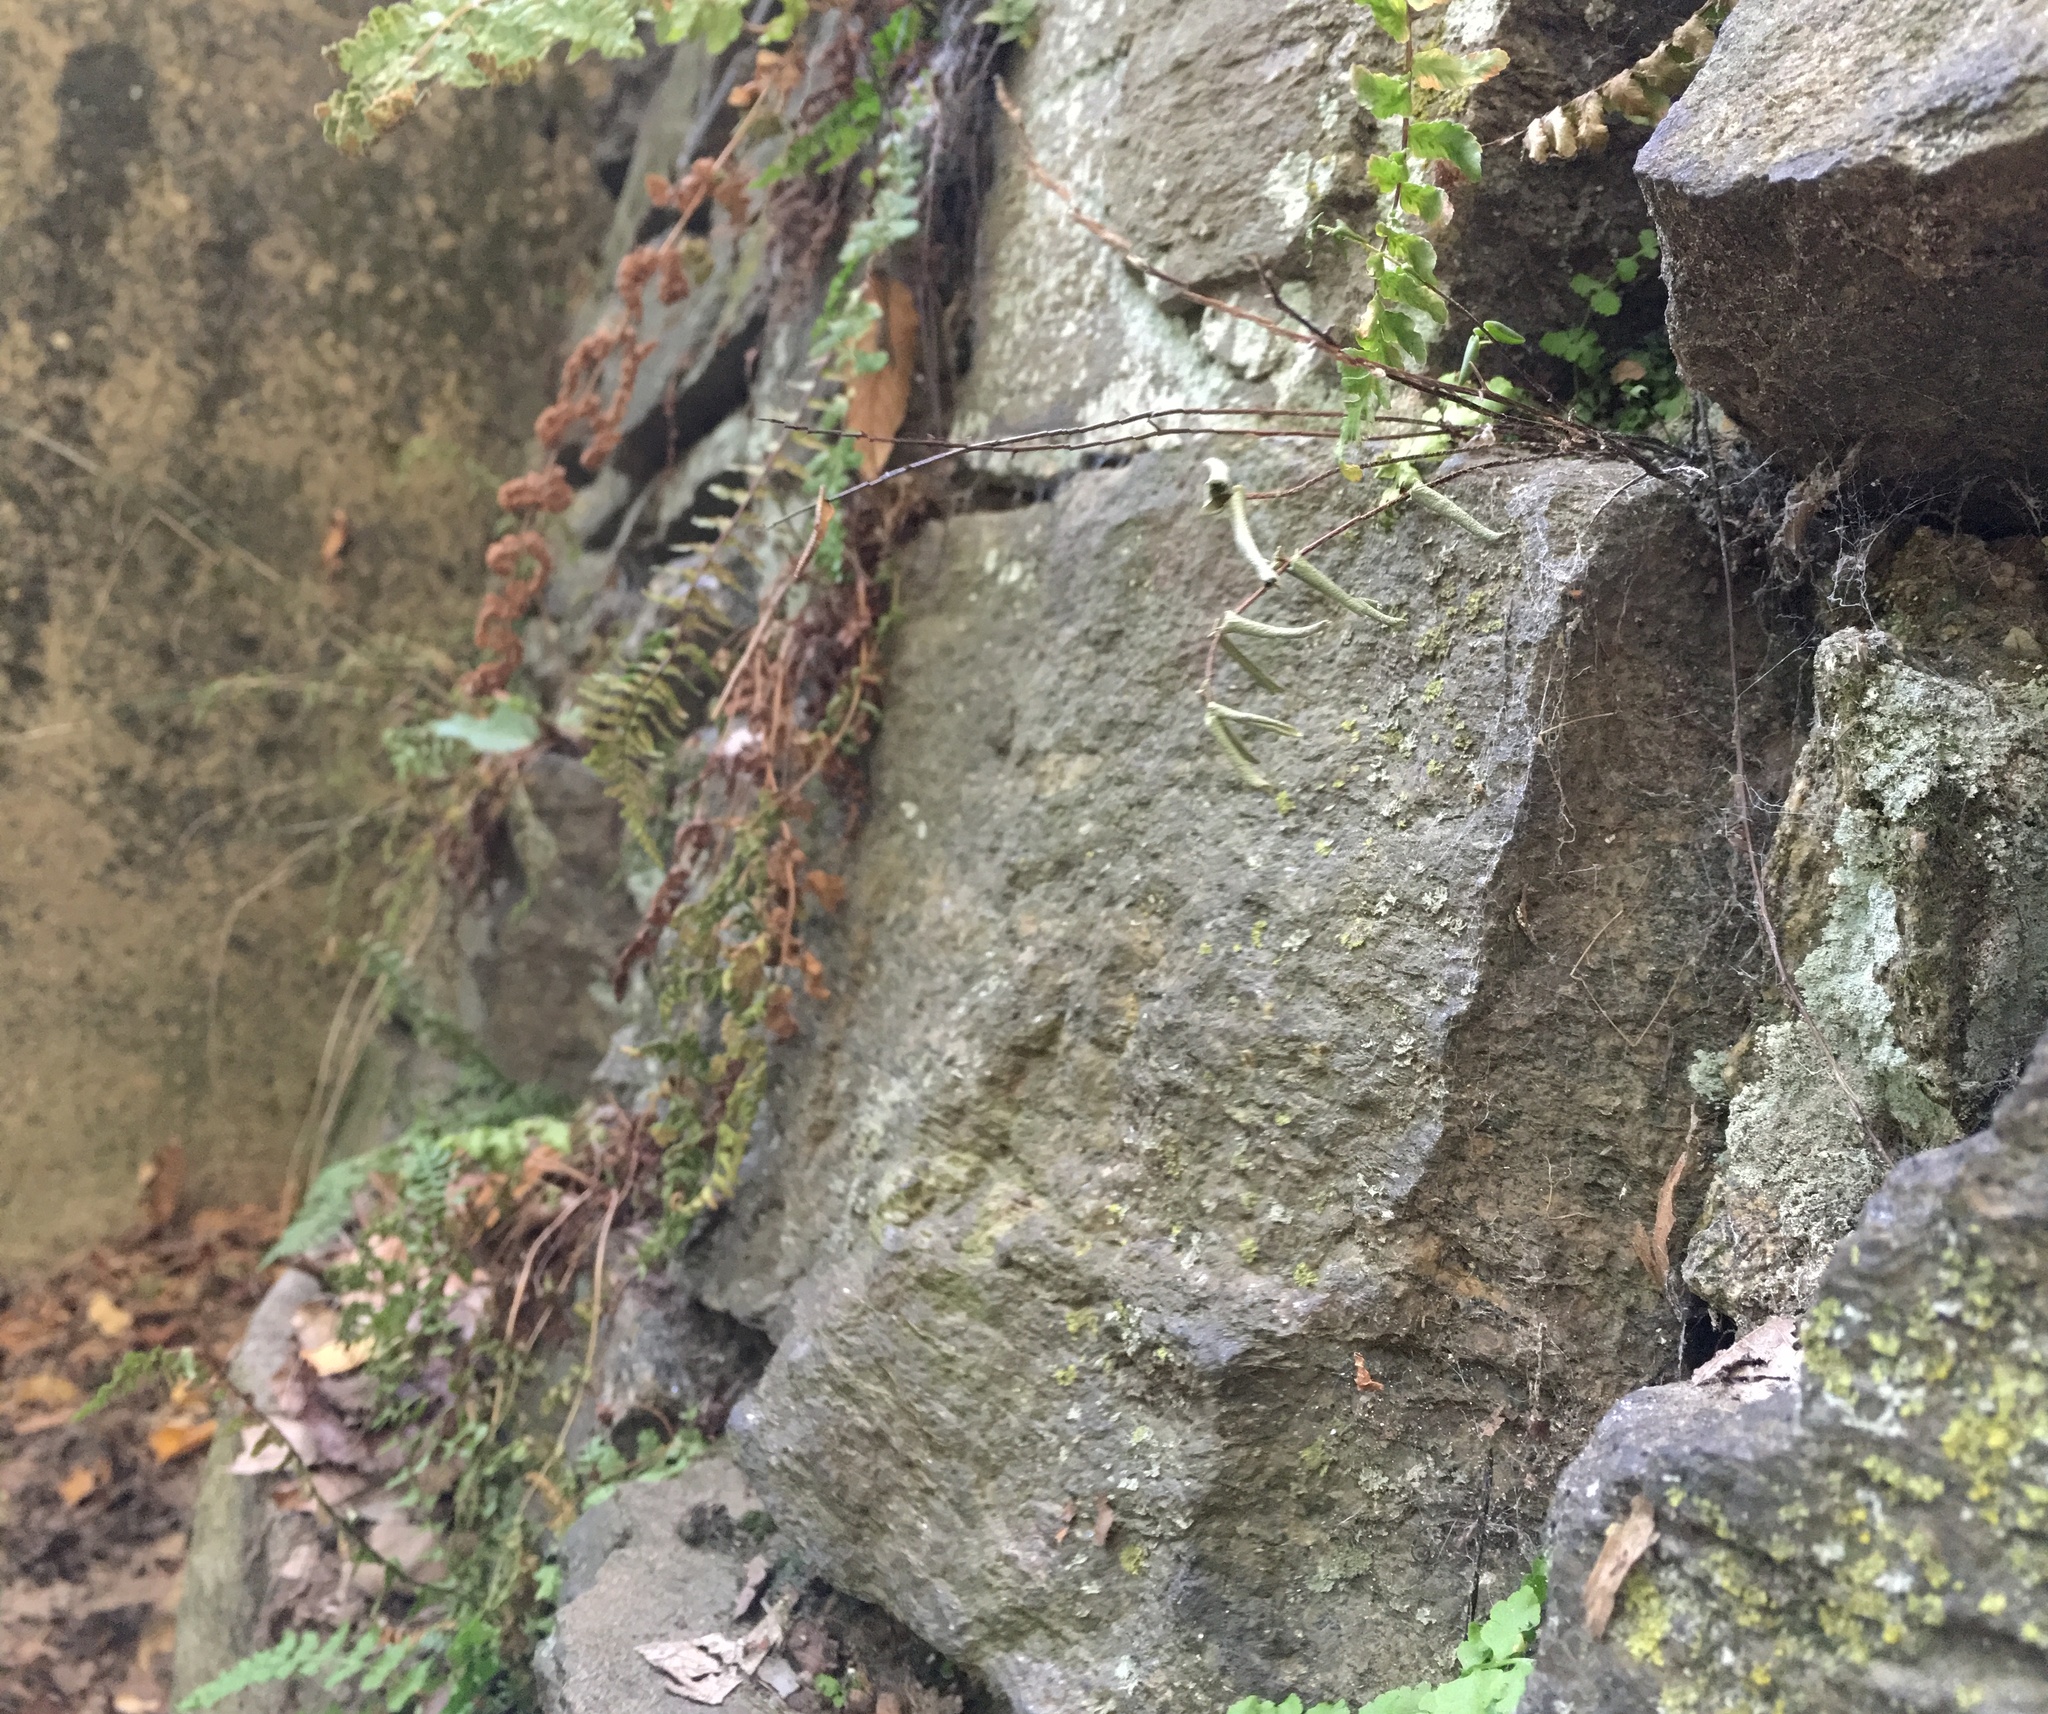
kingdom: Plantae
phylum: Tracheophyta
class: Polypodiopsida
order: Polypodiales
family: Pteridaceae
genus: Pellaea
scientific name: Pellaea atropurpurea
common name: Hairy cliffbrake
